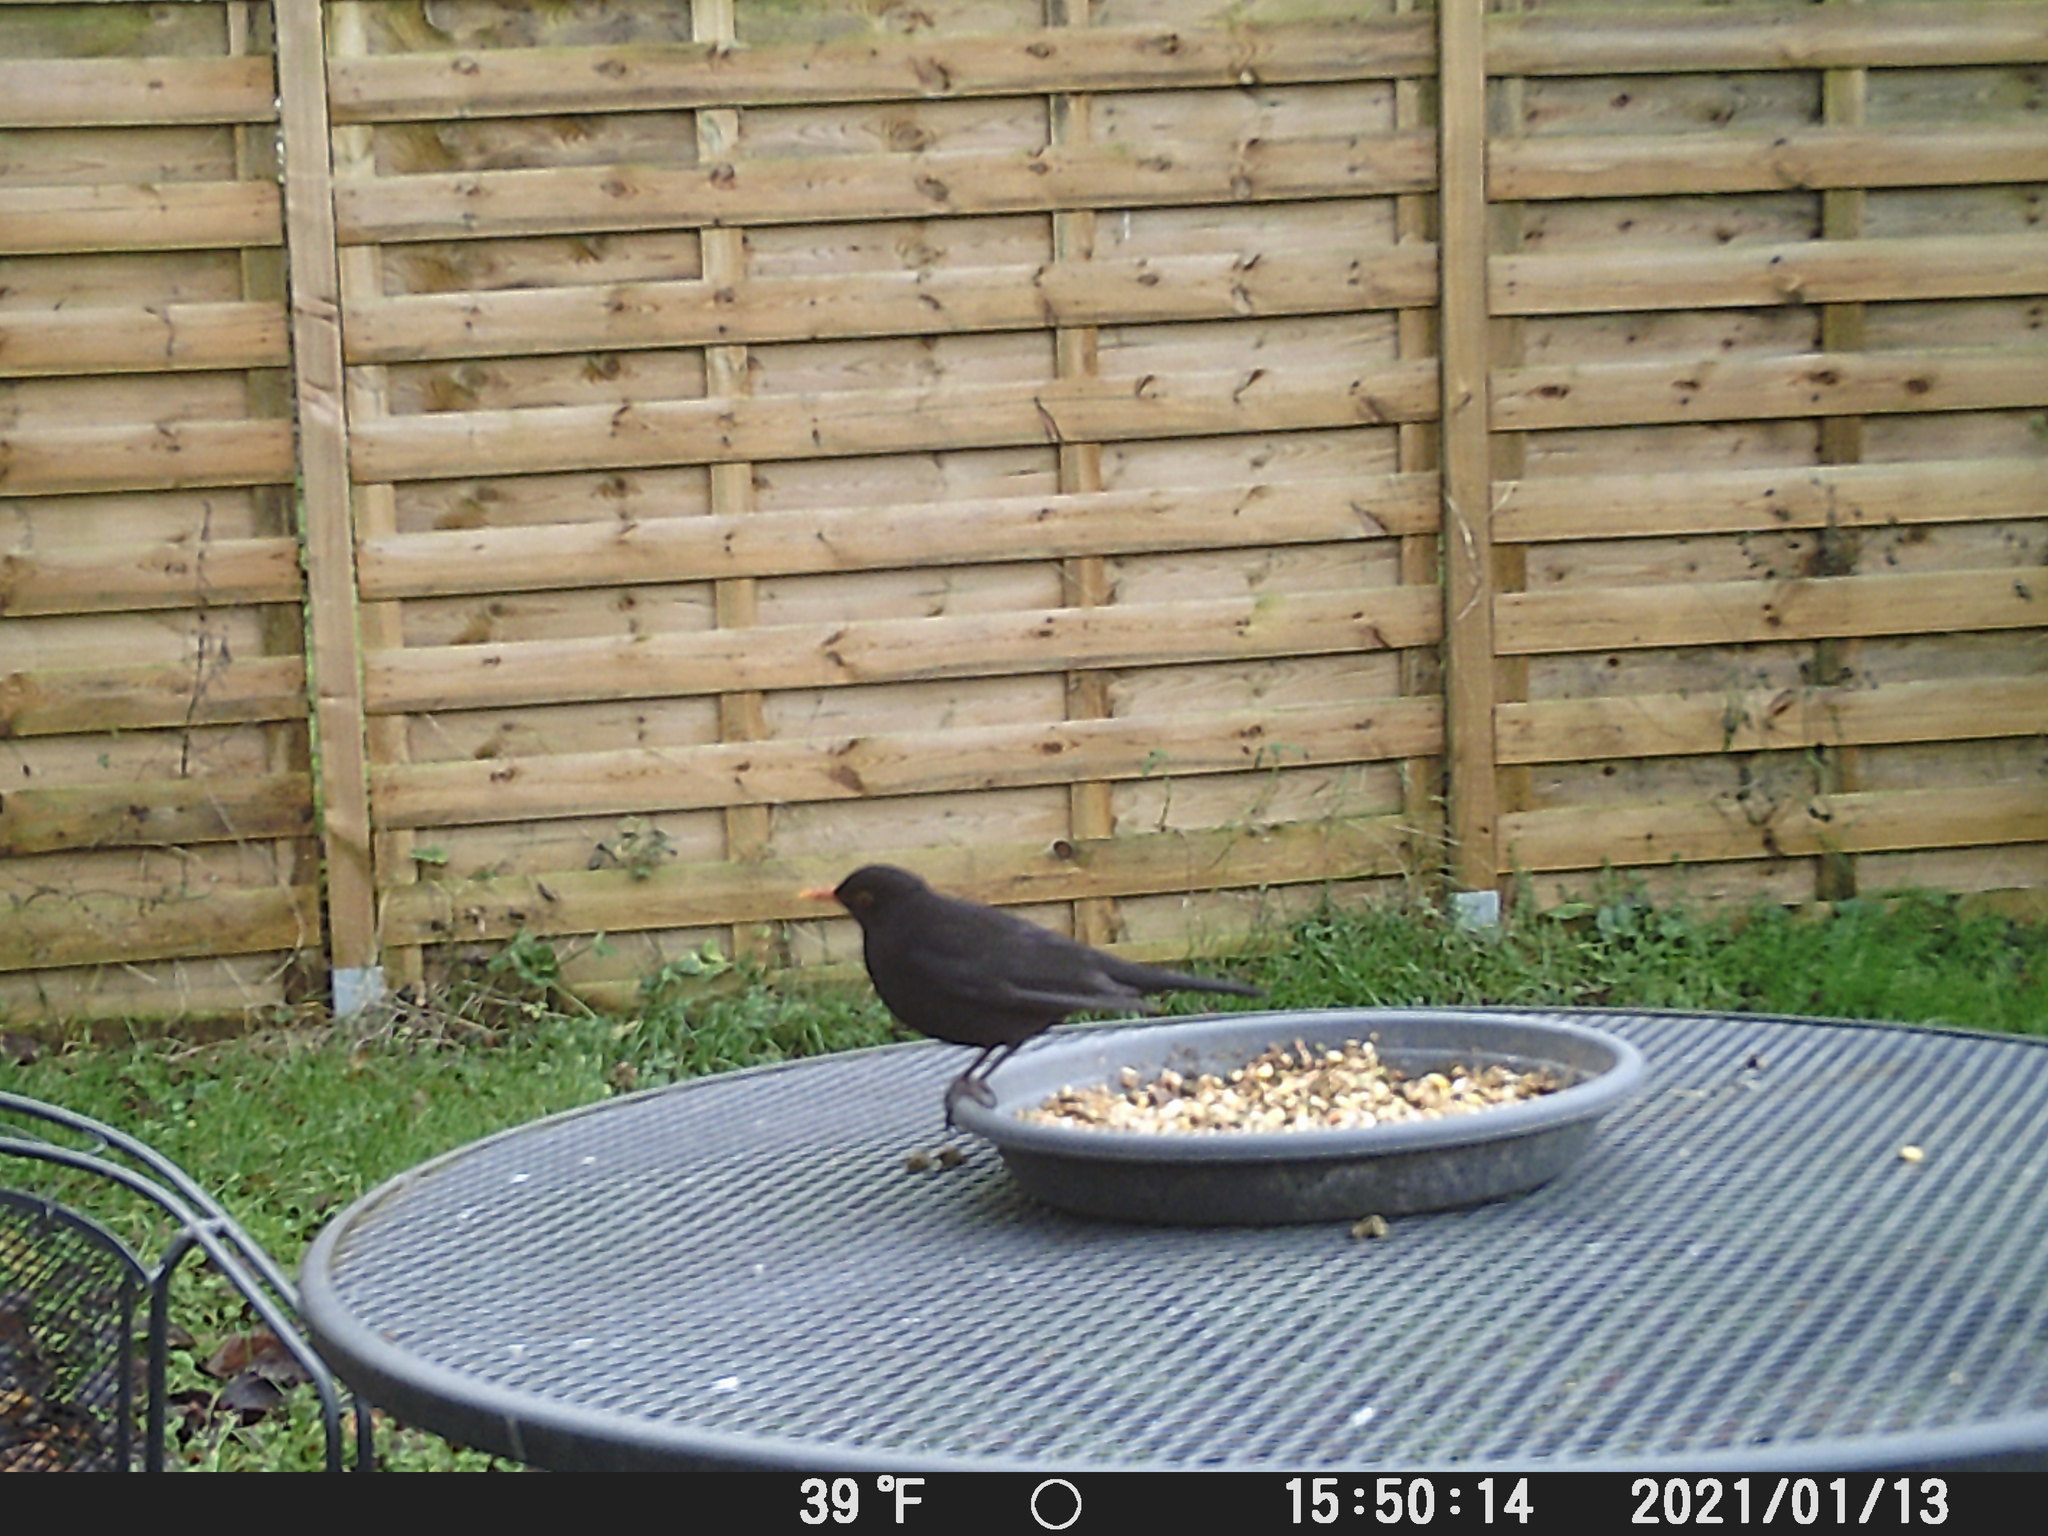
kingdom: Animalia
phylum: Chordata
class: Aves
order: Passeriformes
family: Turdidae
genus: Turdus
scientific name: Turdus merula
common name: Common blackbird
